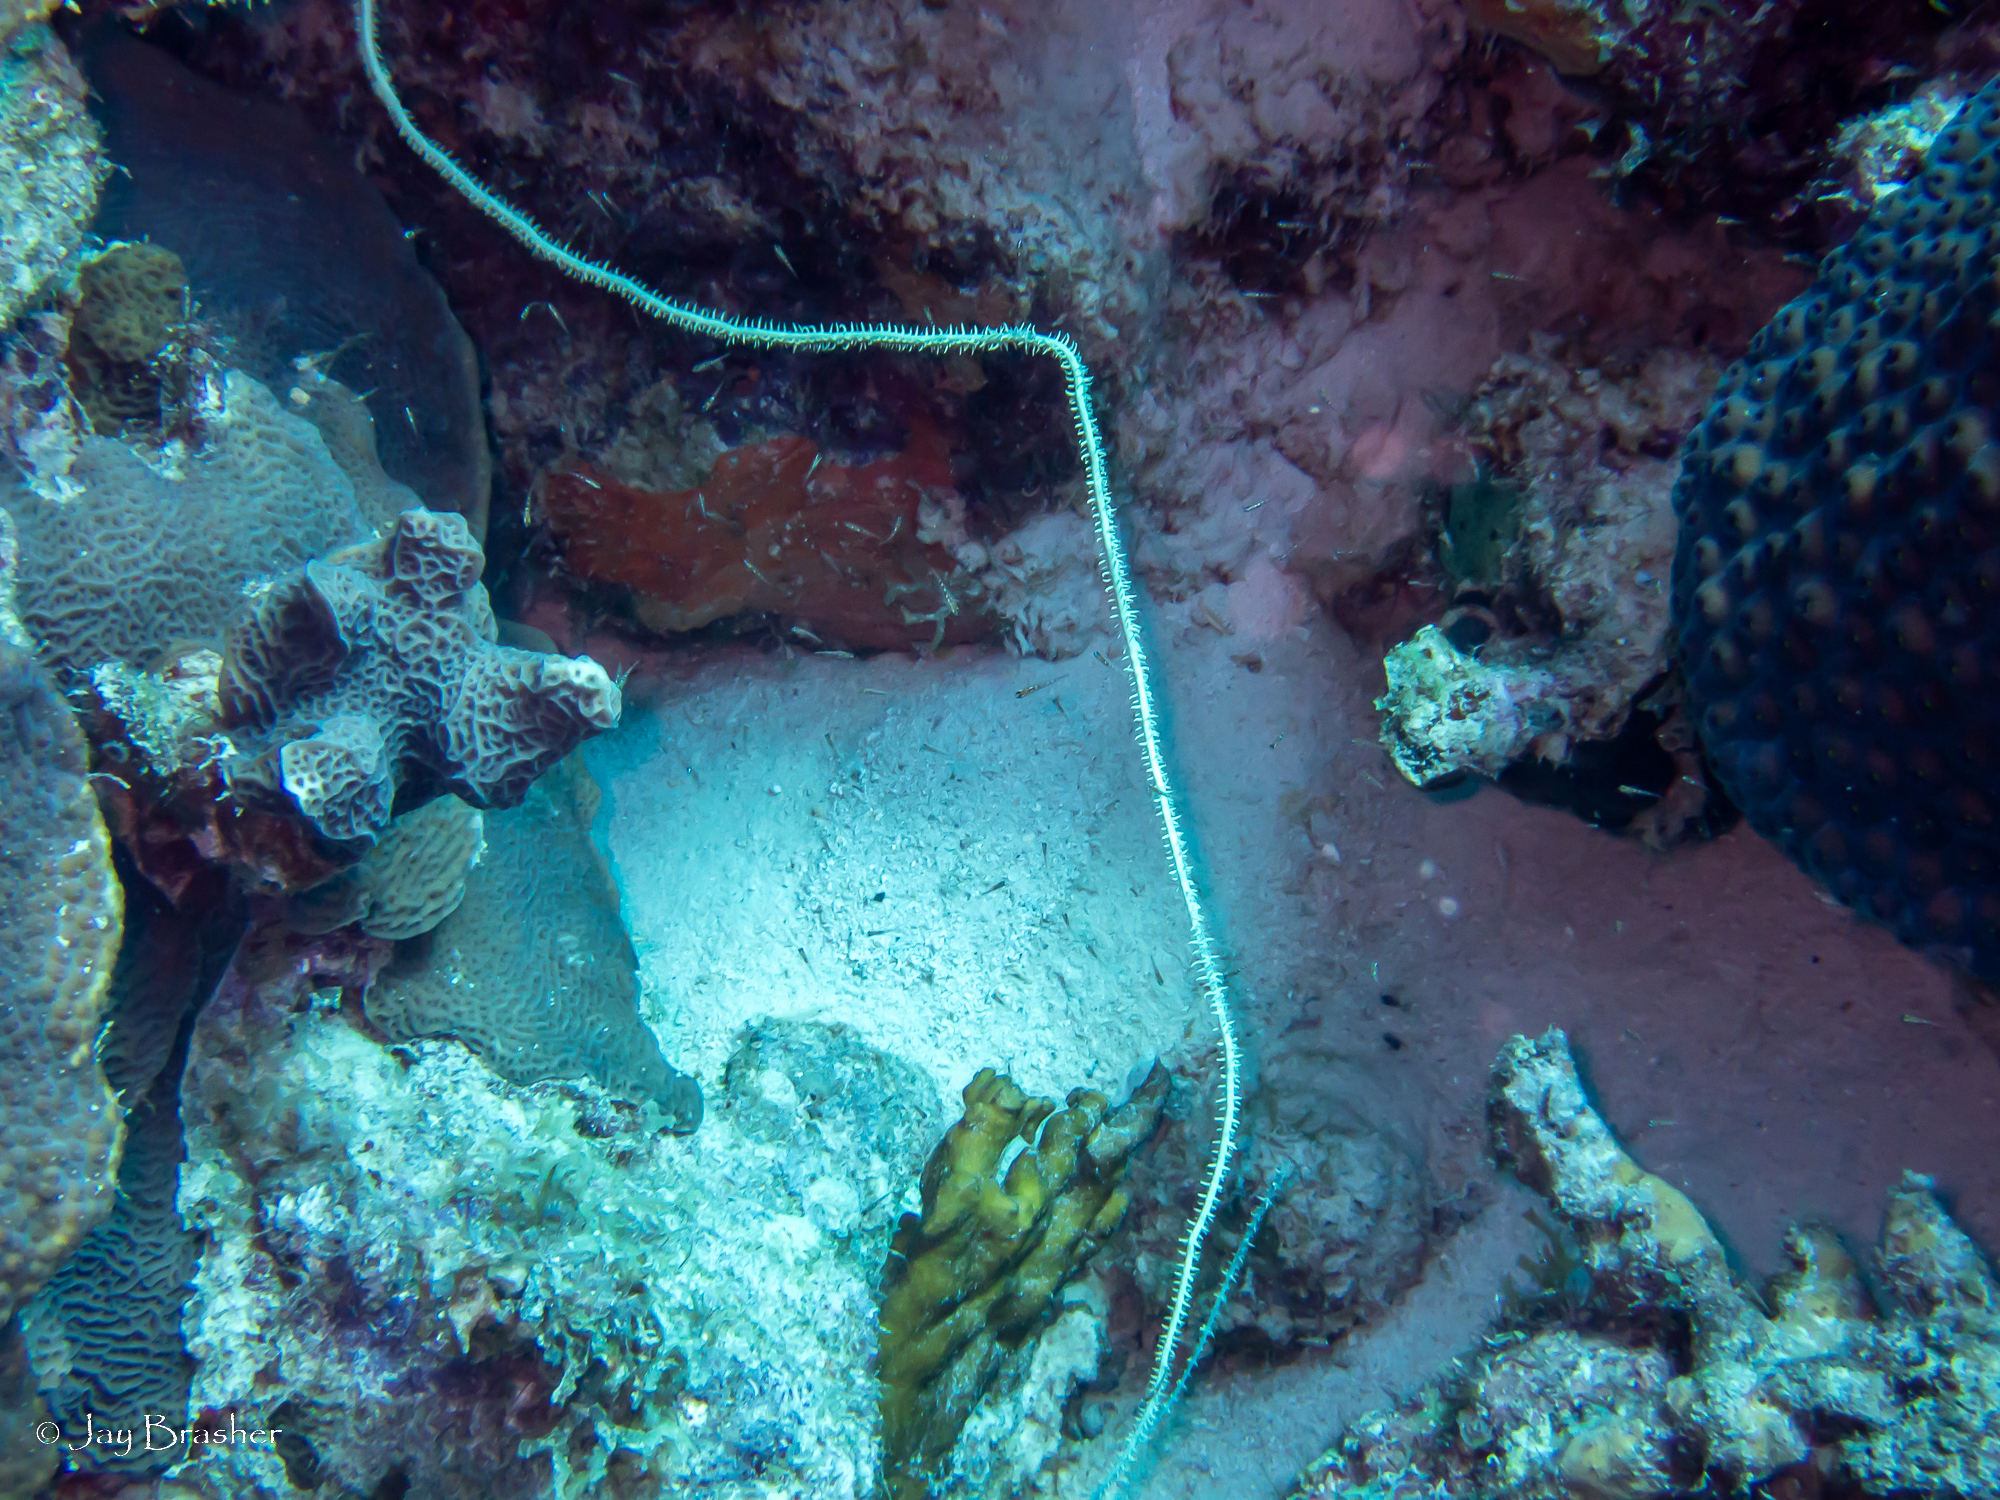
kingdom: Animalia
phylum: Cnidaria
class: Anthozoa
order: Scleractinia
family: Montastraeidae
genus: Montastraea
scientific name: Montastraea cavernosa
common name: Great star coral
